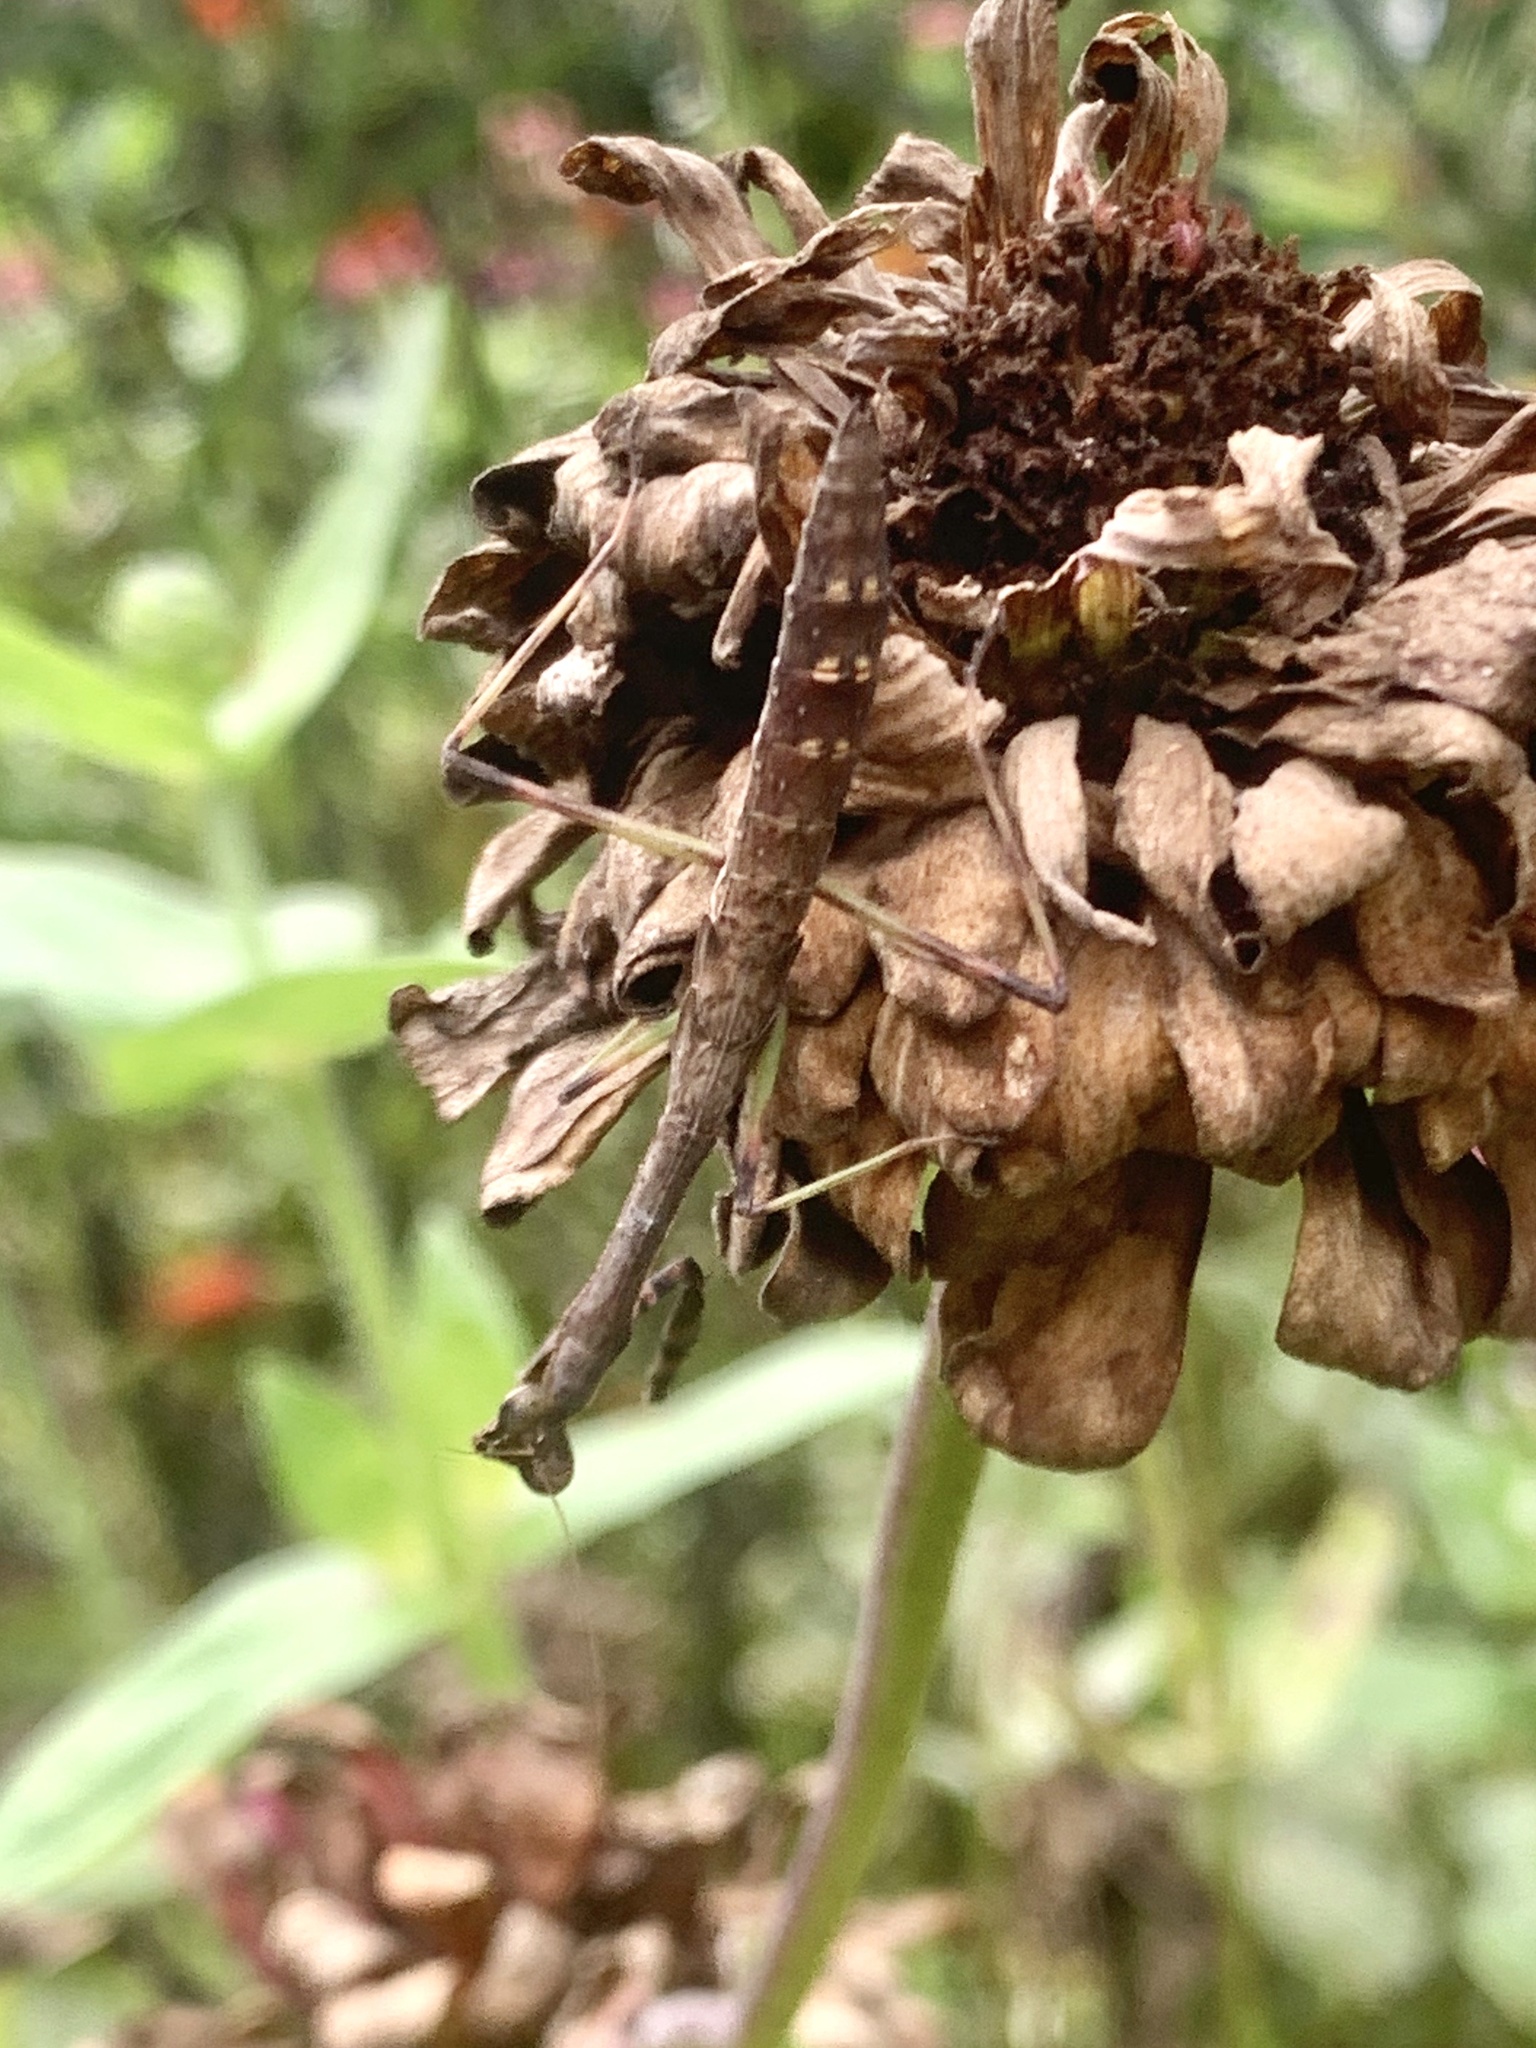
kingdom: Animalia
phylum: Arthropoda
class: Insecta
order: Mantodea
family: Mantidae
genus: Stagmomantis
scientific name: Stagmomantis carolina
